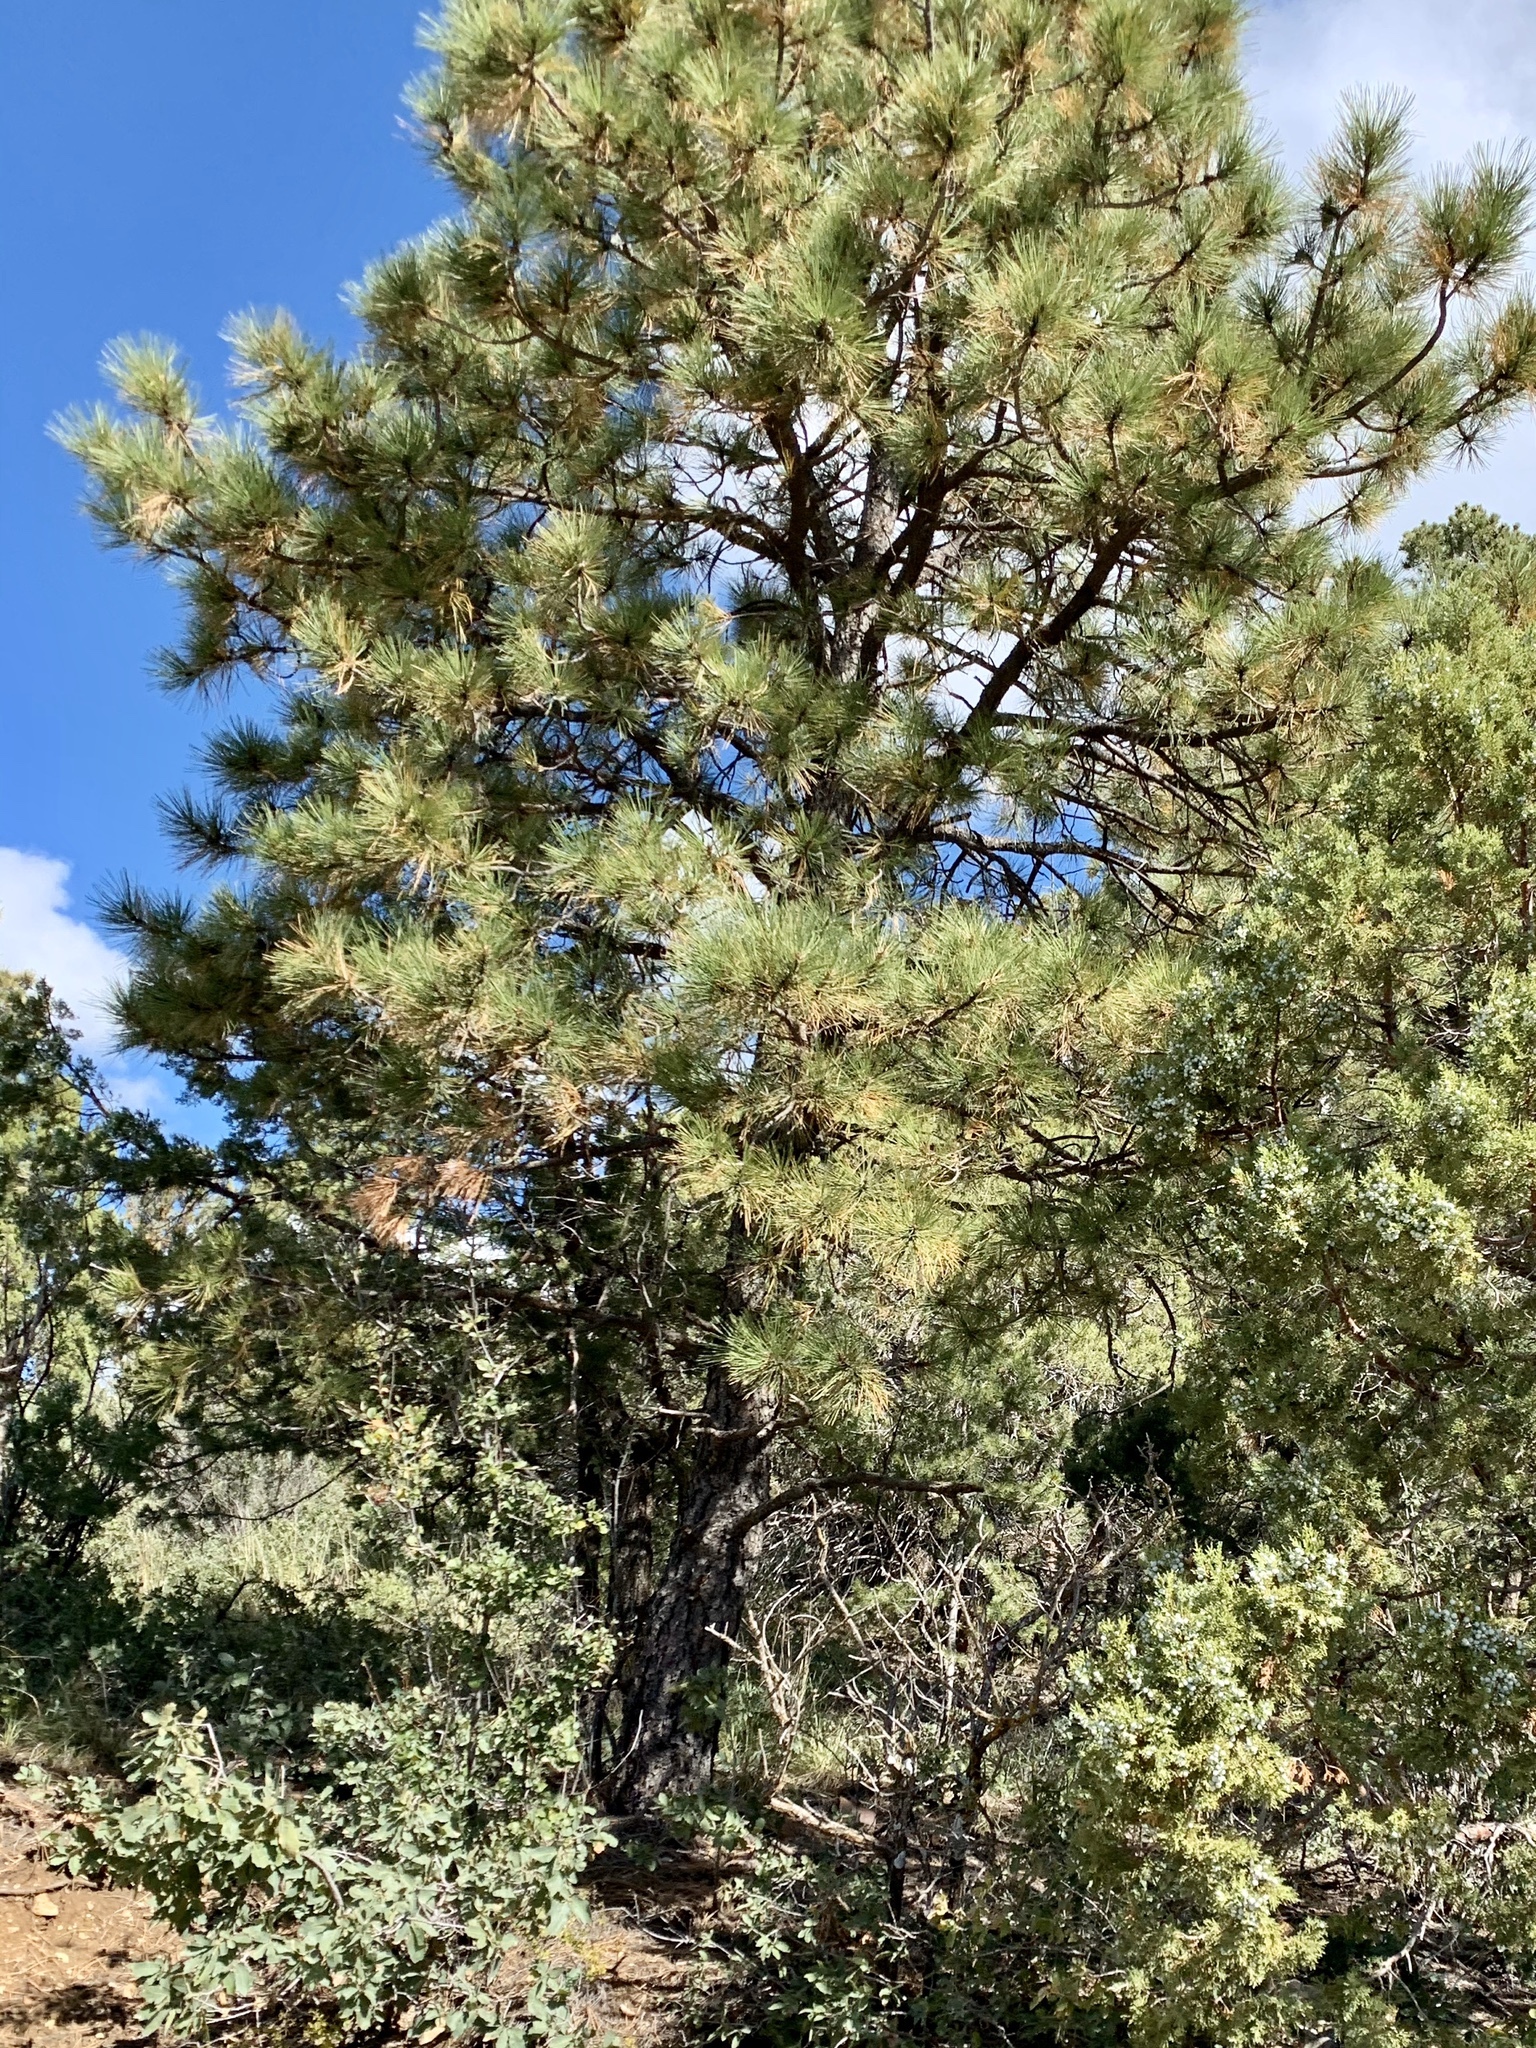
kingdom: Plantae
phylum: Tracheophyta
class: Pinopsida
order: Pinales
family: Pinaceae
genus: Pinus
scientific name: Pinus ponderosa
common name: Western yellow-pine
